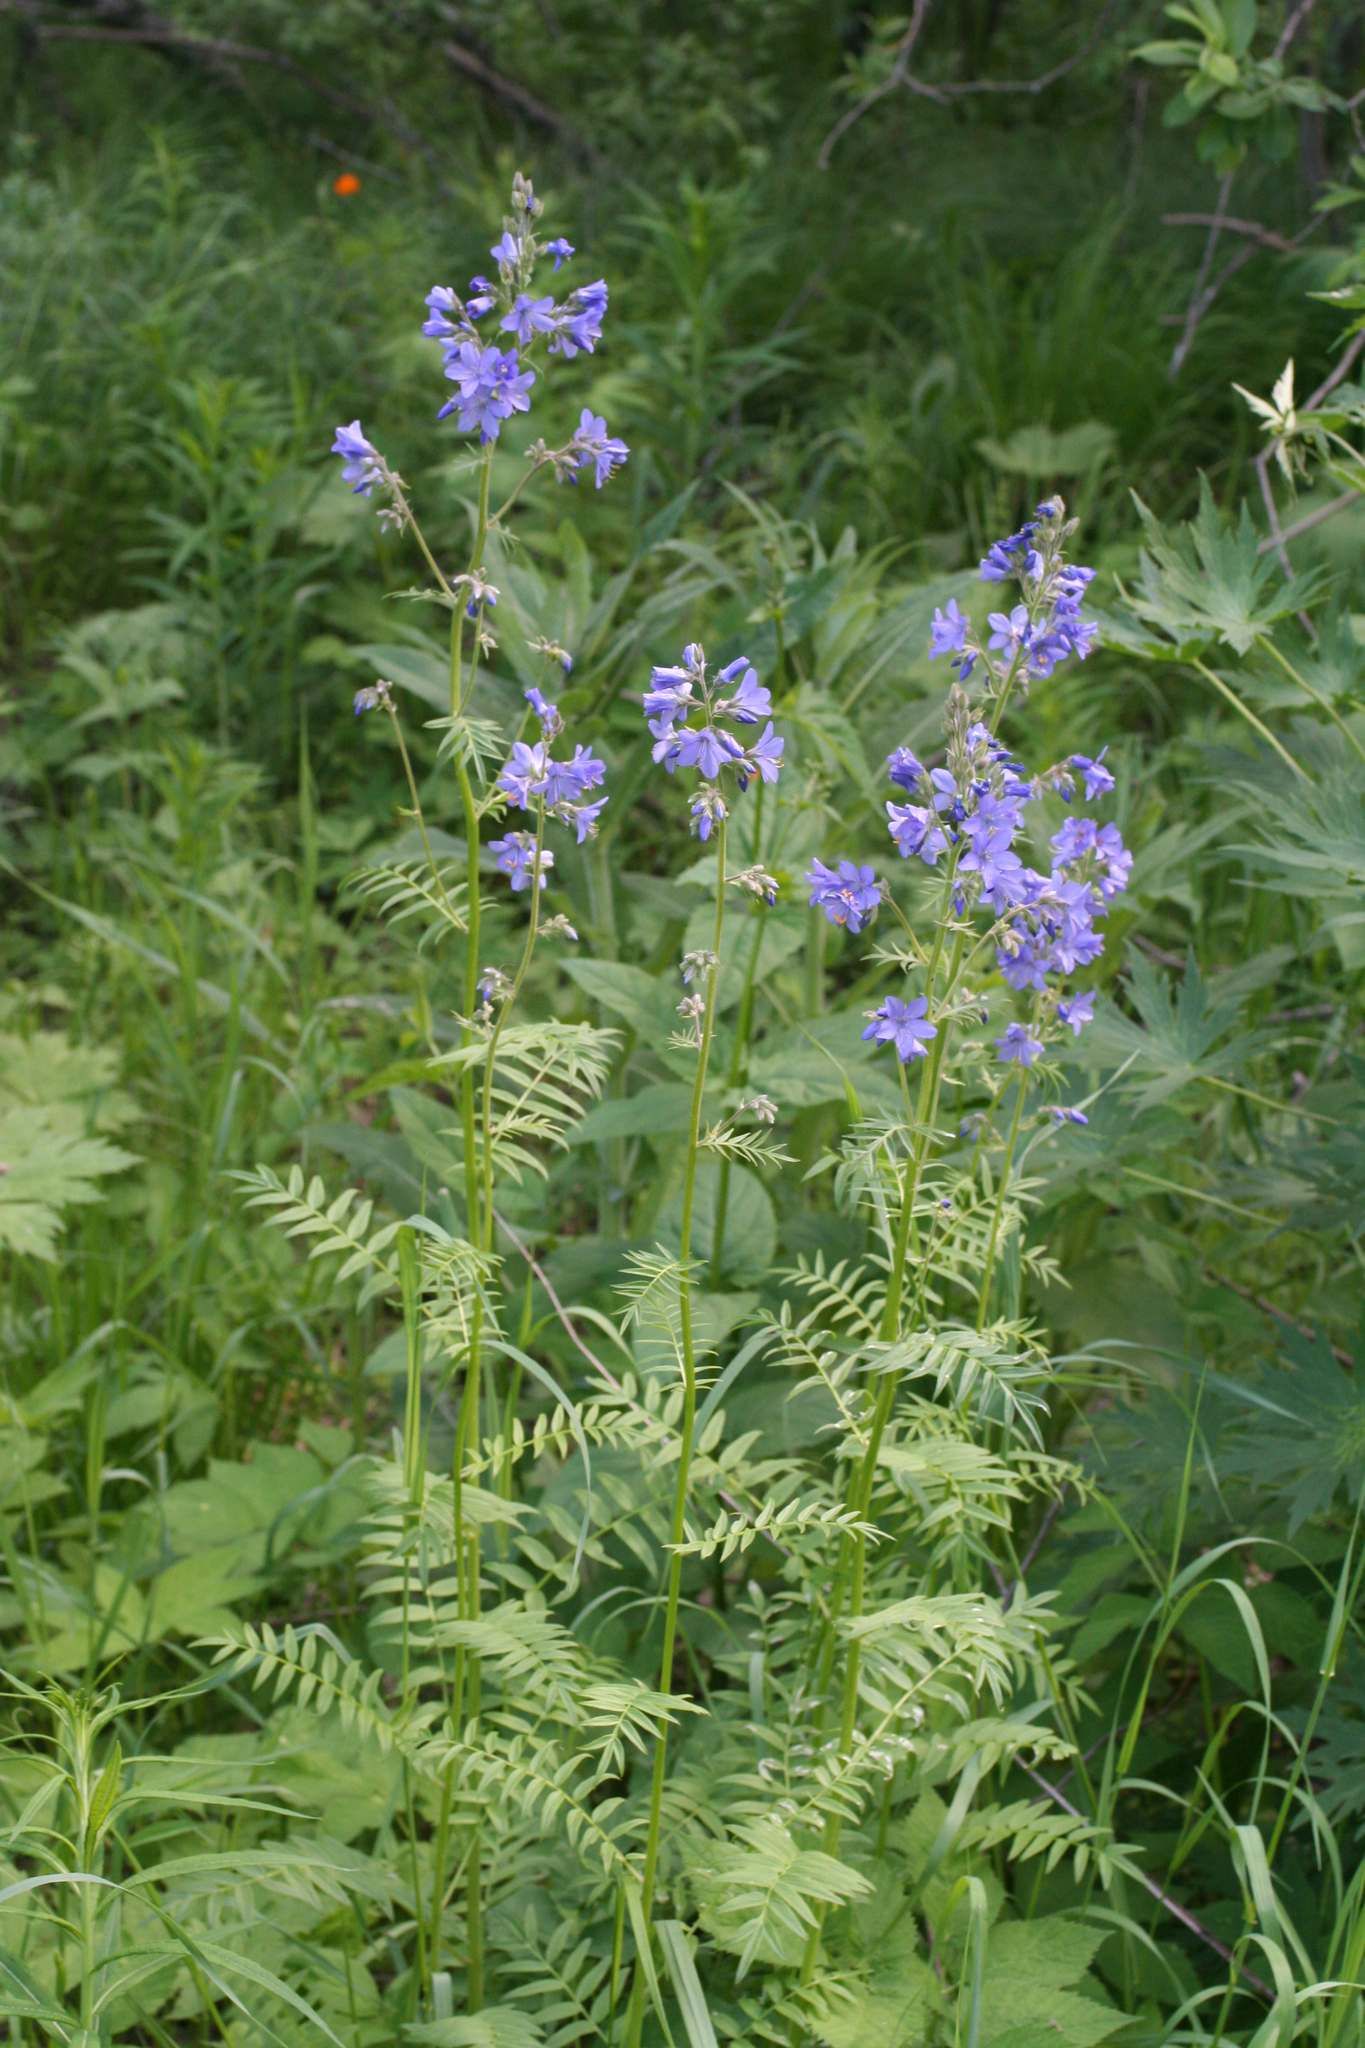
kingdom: Plantae
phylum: Tracheophyta
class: Magnoliopsida
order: Ericales
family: Polemoniaceae
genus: Polemonium
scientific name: Polemonium caeruleum
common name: Jacob's-ladder
